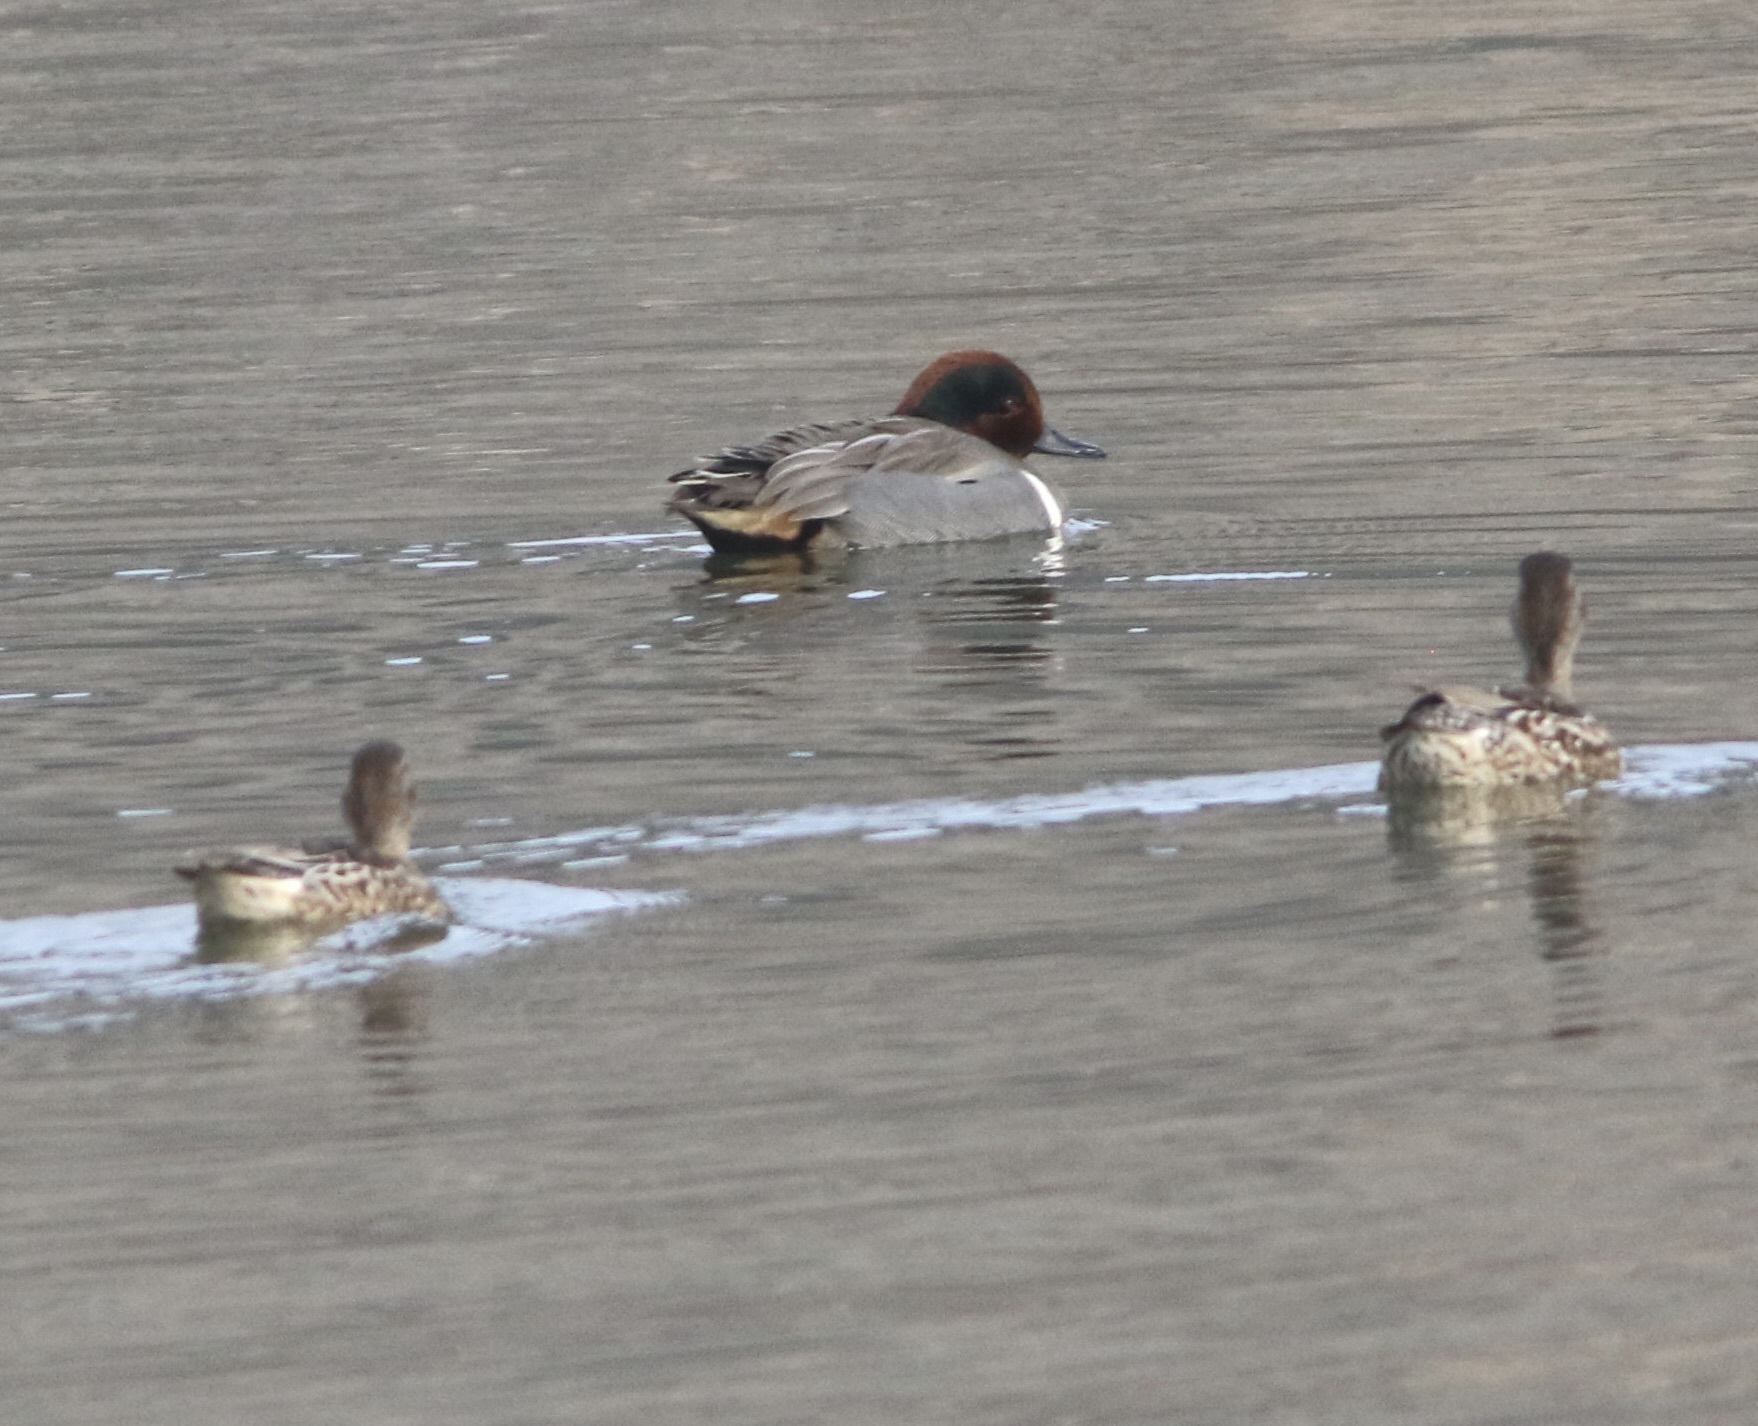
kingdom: Animalia
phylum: Chordata
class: Aves
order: Anseriformes
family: Anatidae
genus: Anas
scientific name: Anas crecca
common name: Eurasian teal
